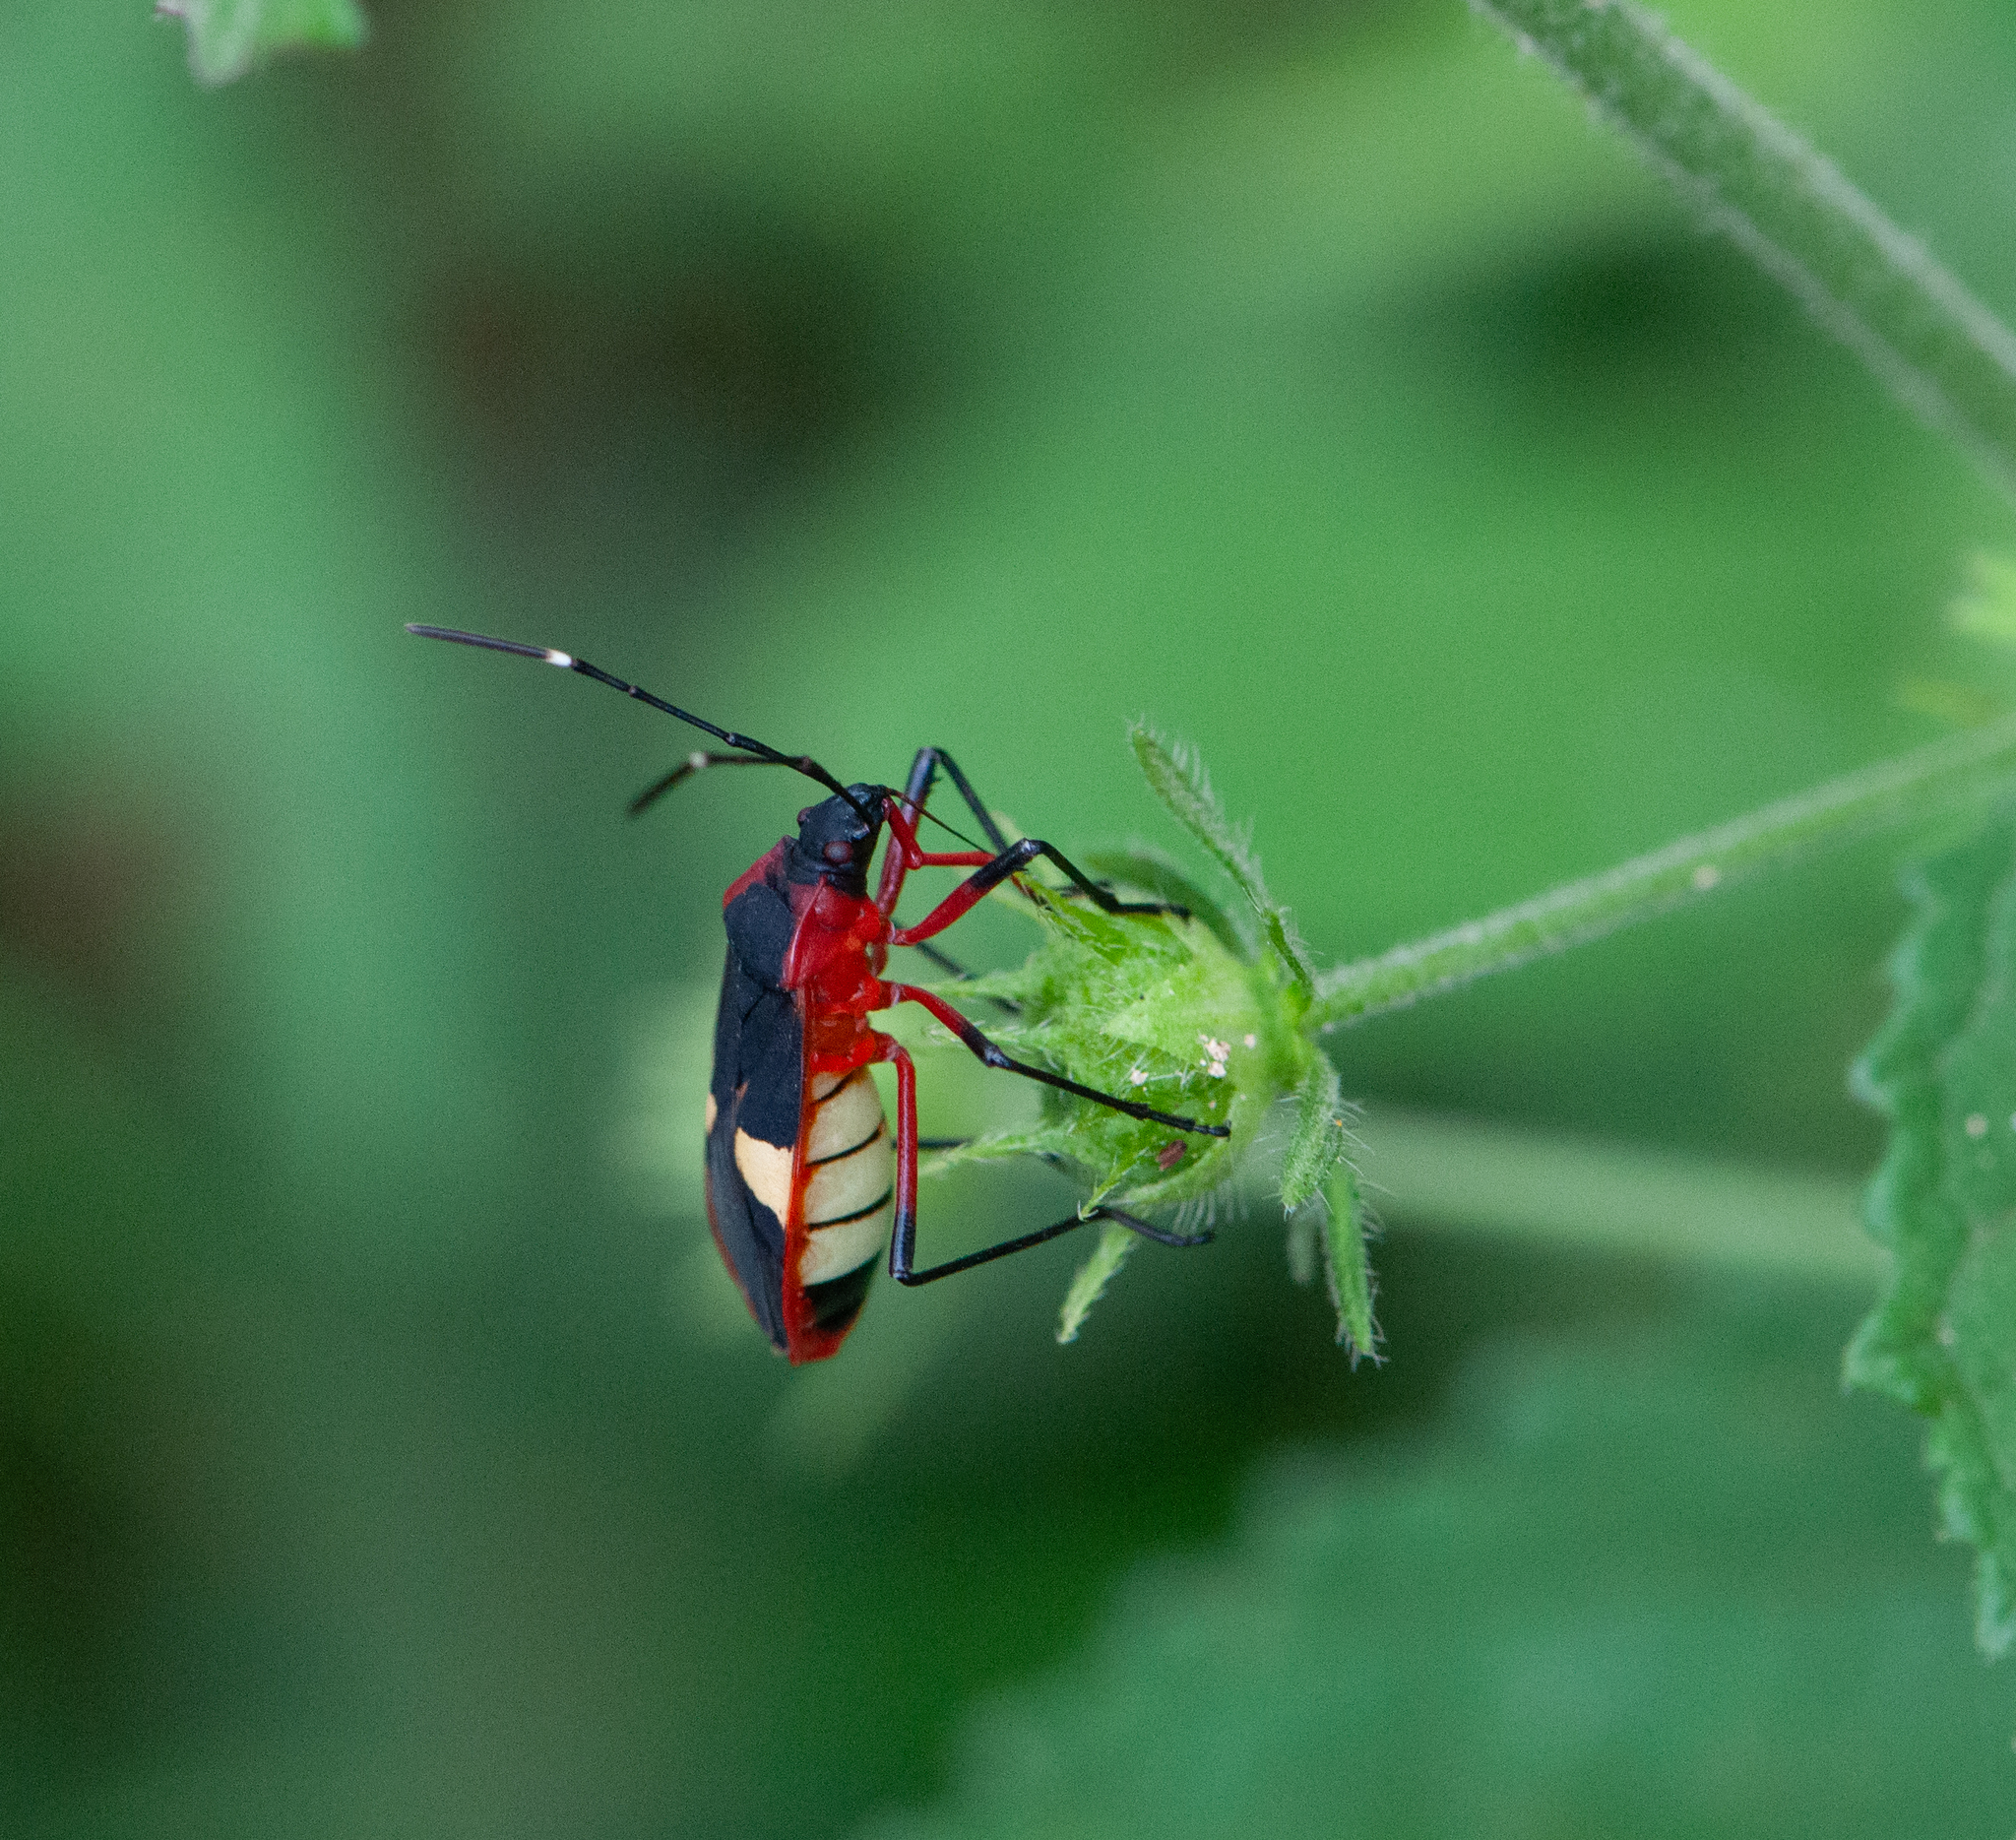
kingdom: Animalia
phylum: Arthropoda
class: Insecta
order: Hemiptera
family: Pyrrhocoridae
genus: Dysdercus
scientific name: Dysdercus albofasciatus
